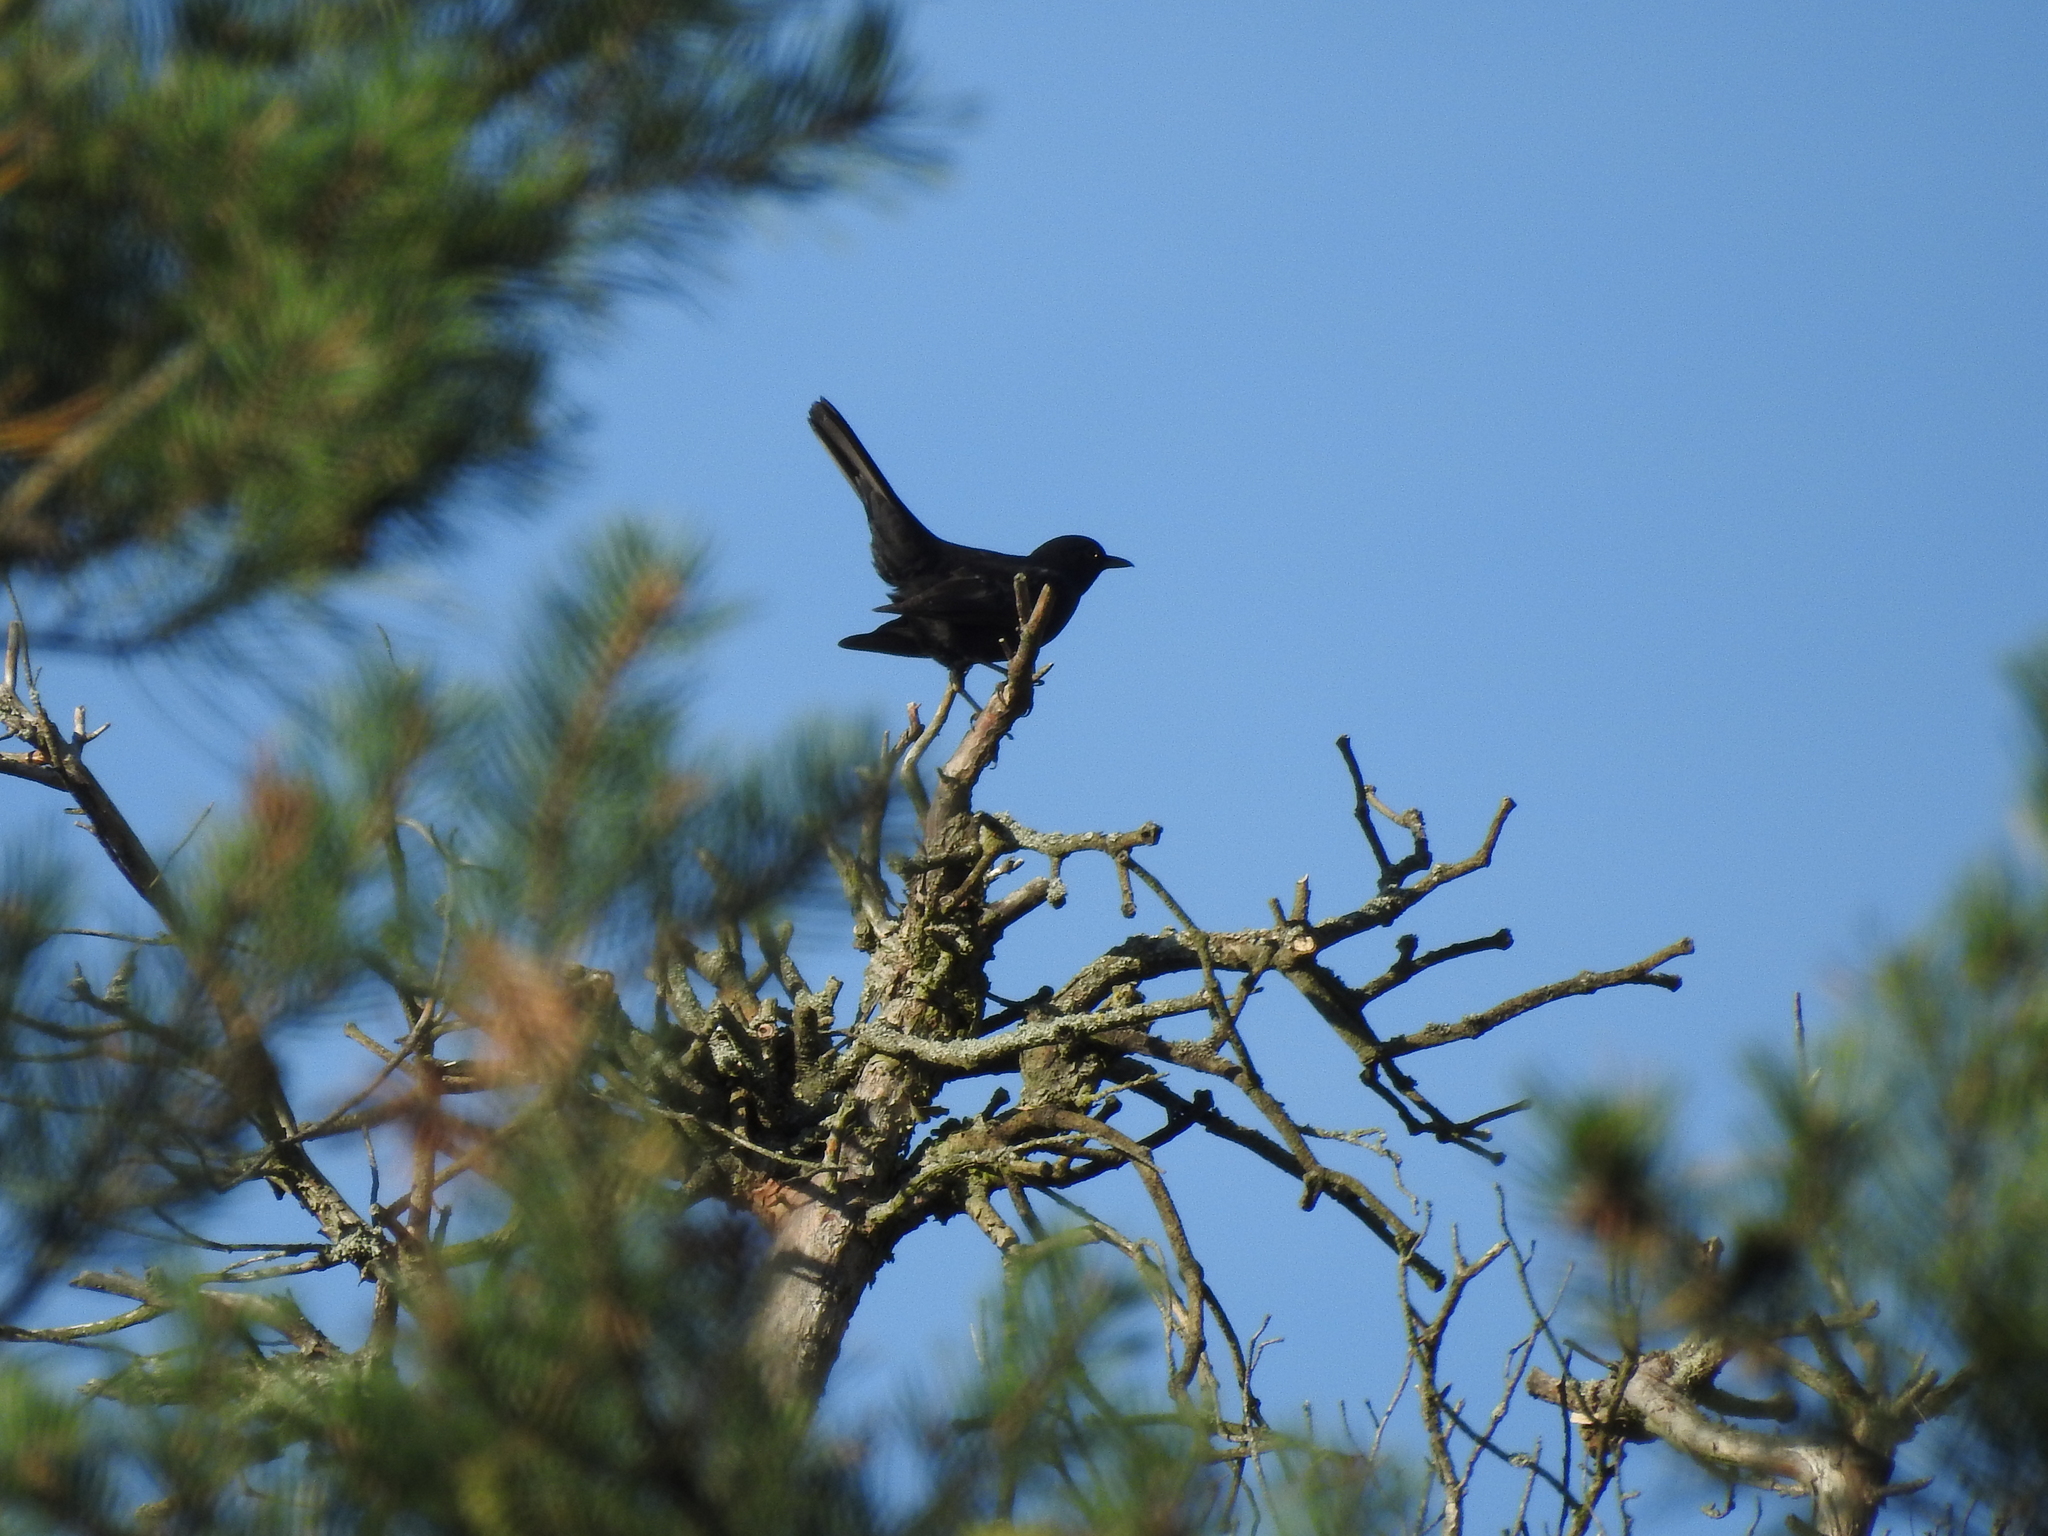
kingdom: Animalia
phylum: Chordata
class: Aves
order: Passeriformes
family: Turdidae
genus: Turdus
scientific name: Turdus merula
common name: Common blackbird
